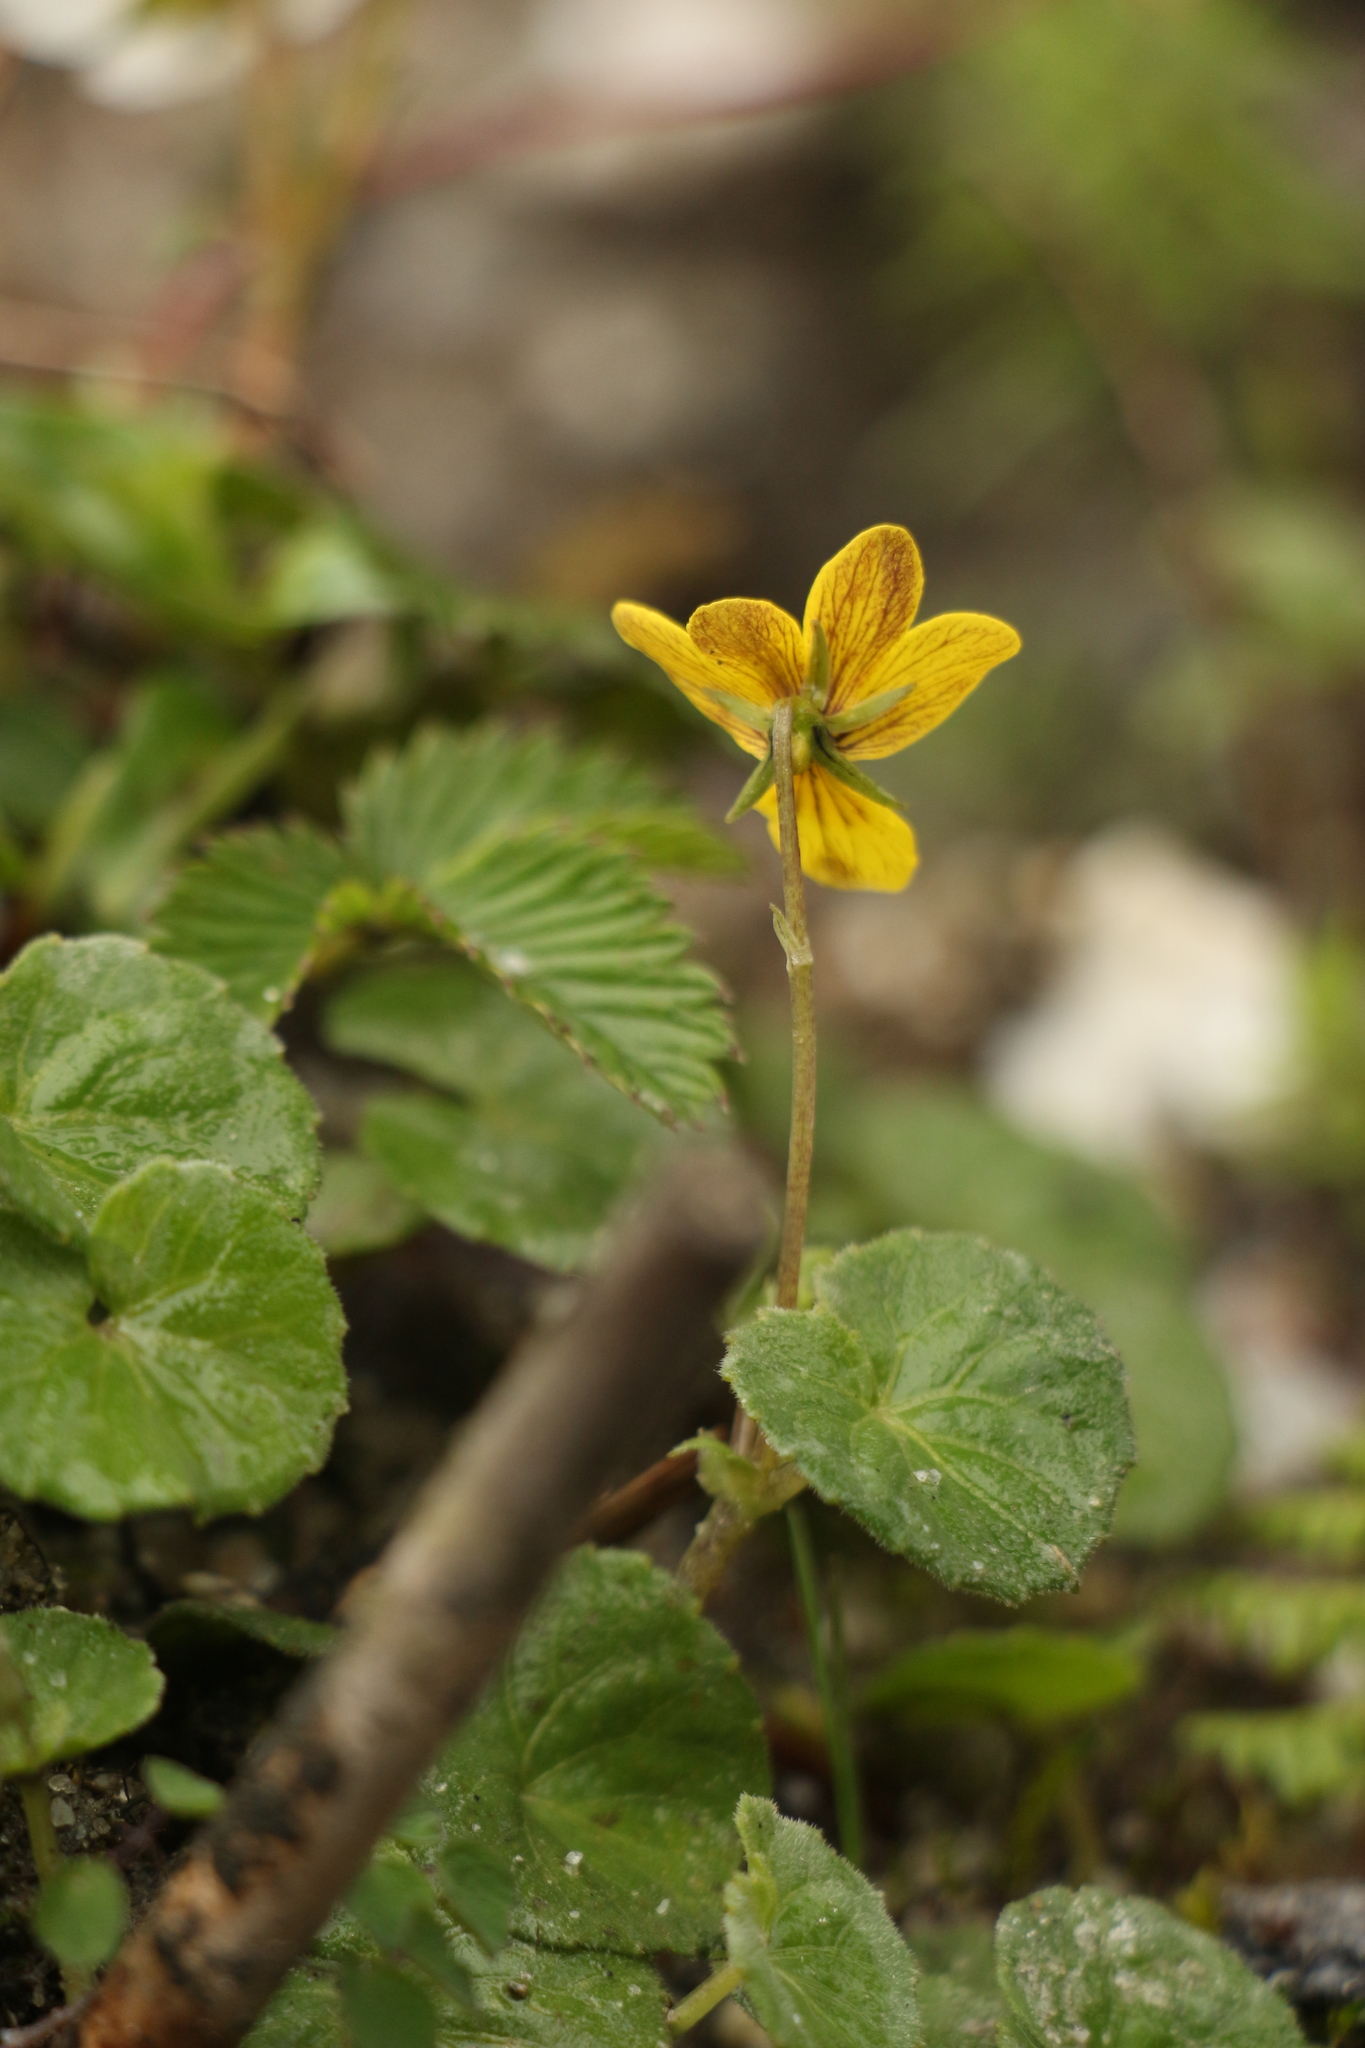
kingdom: Plantae
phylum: Tracheophyta
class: Magnoliopsida
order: Malpighiales
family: Violaceae
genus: Viola
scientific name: Viola biflora
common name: Alpine yellow violet
